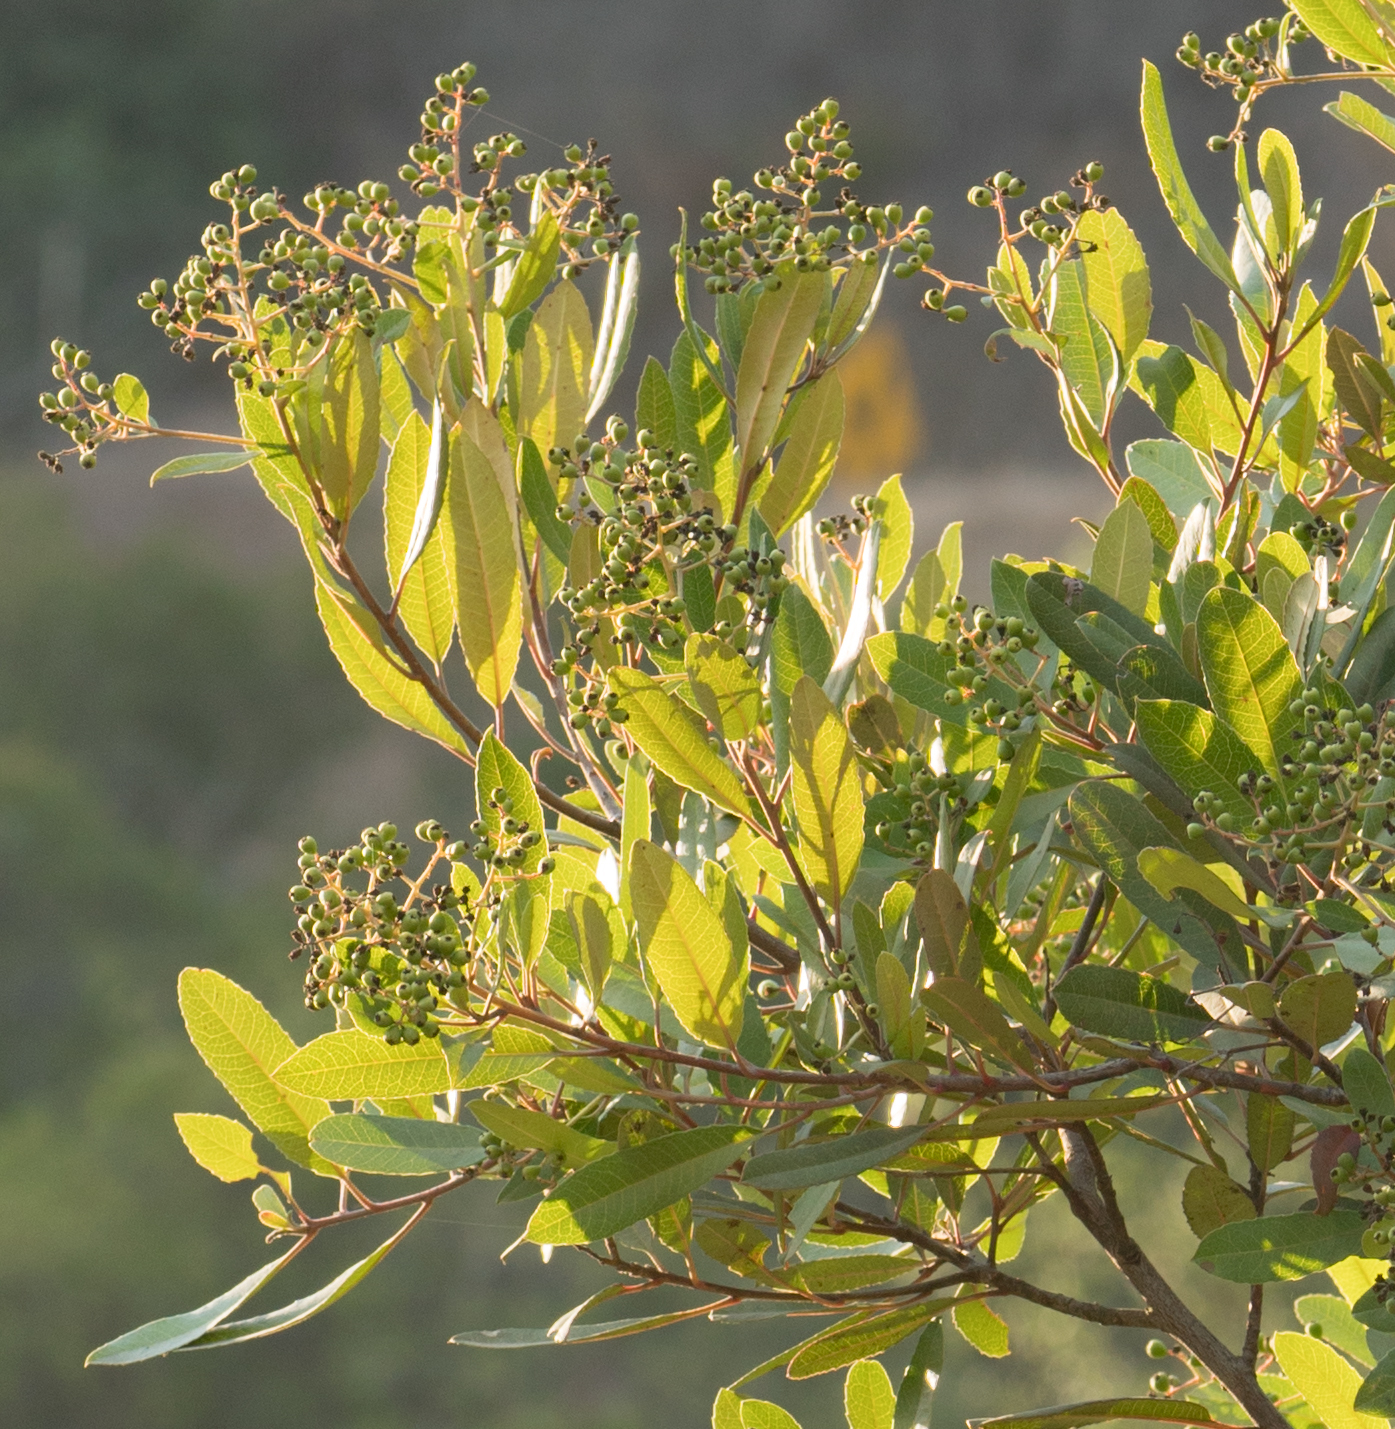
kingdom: Plantae
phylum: Tracheophyta
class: Magnoliopsida
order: Rosales
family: Rosaceae
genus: Heteromeles
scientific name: Heteromeles arbutifolia
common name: California-holly
